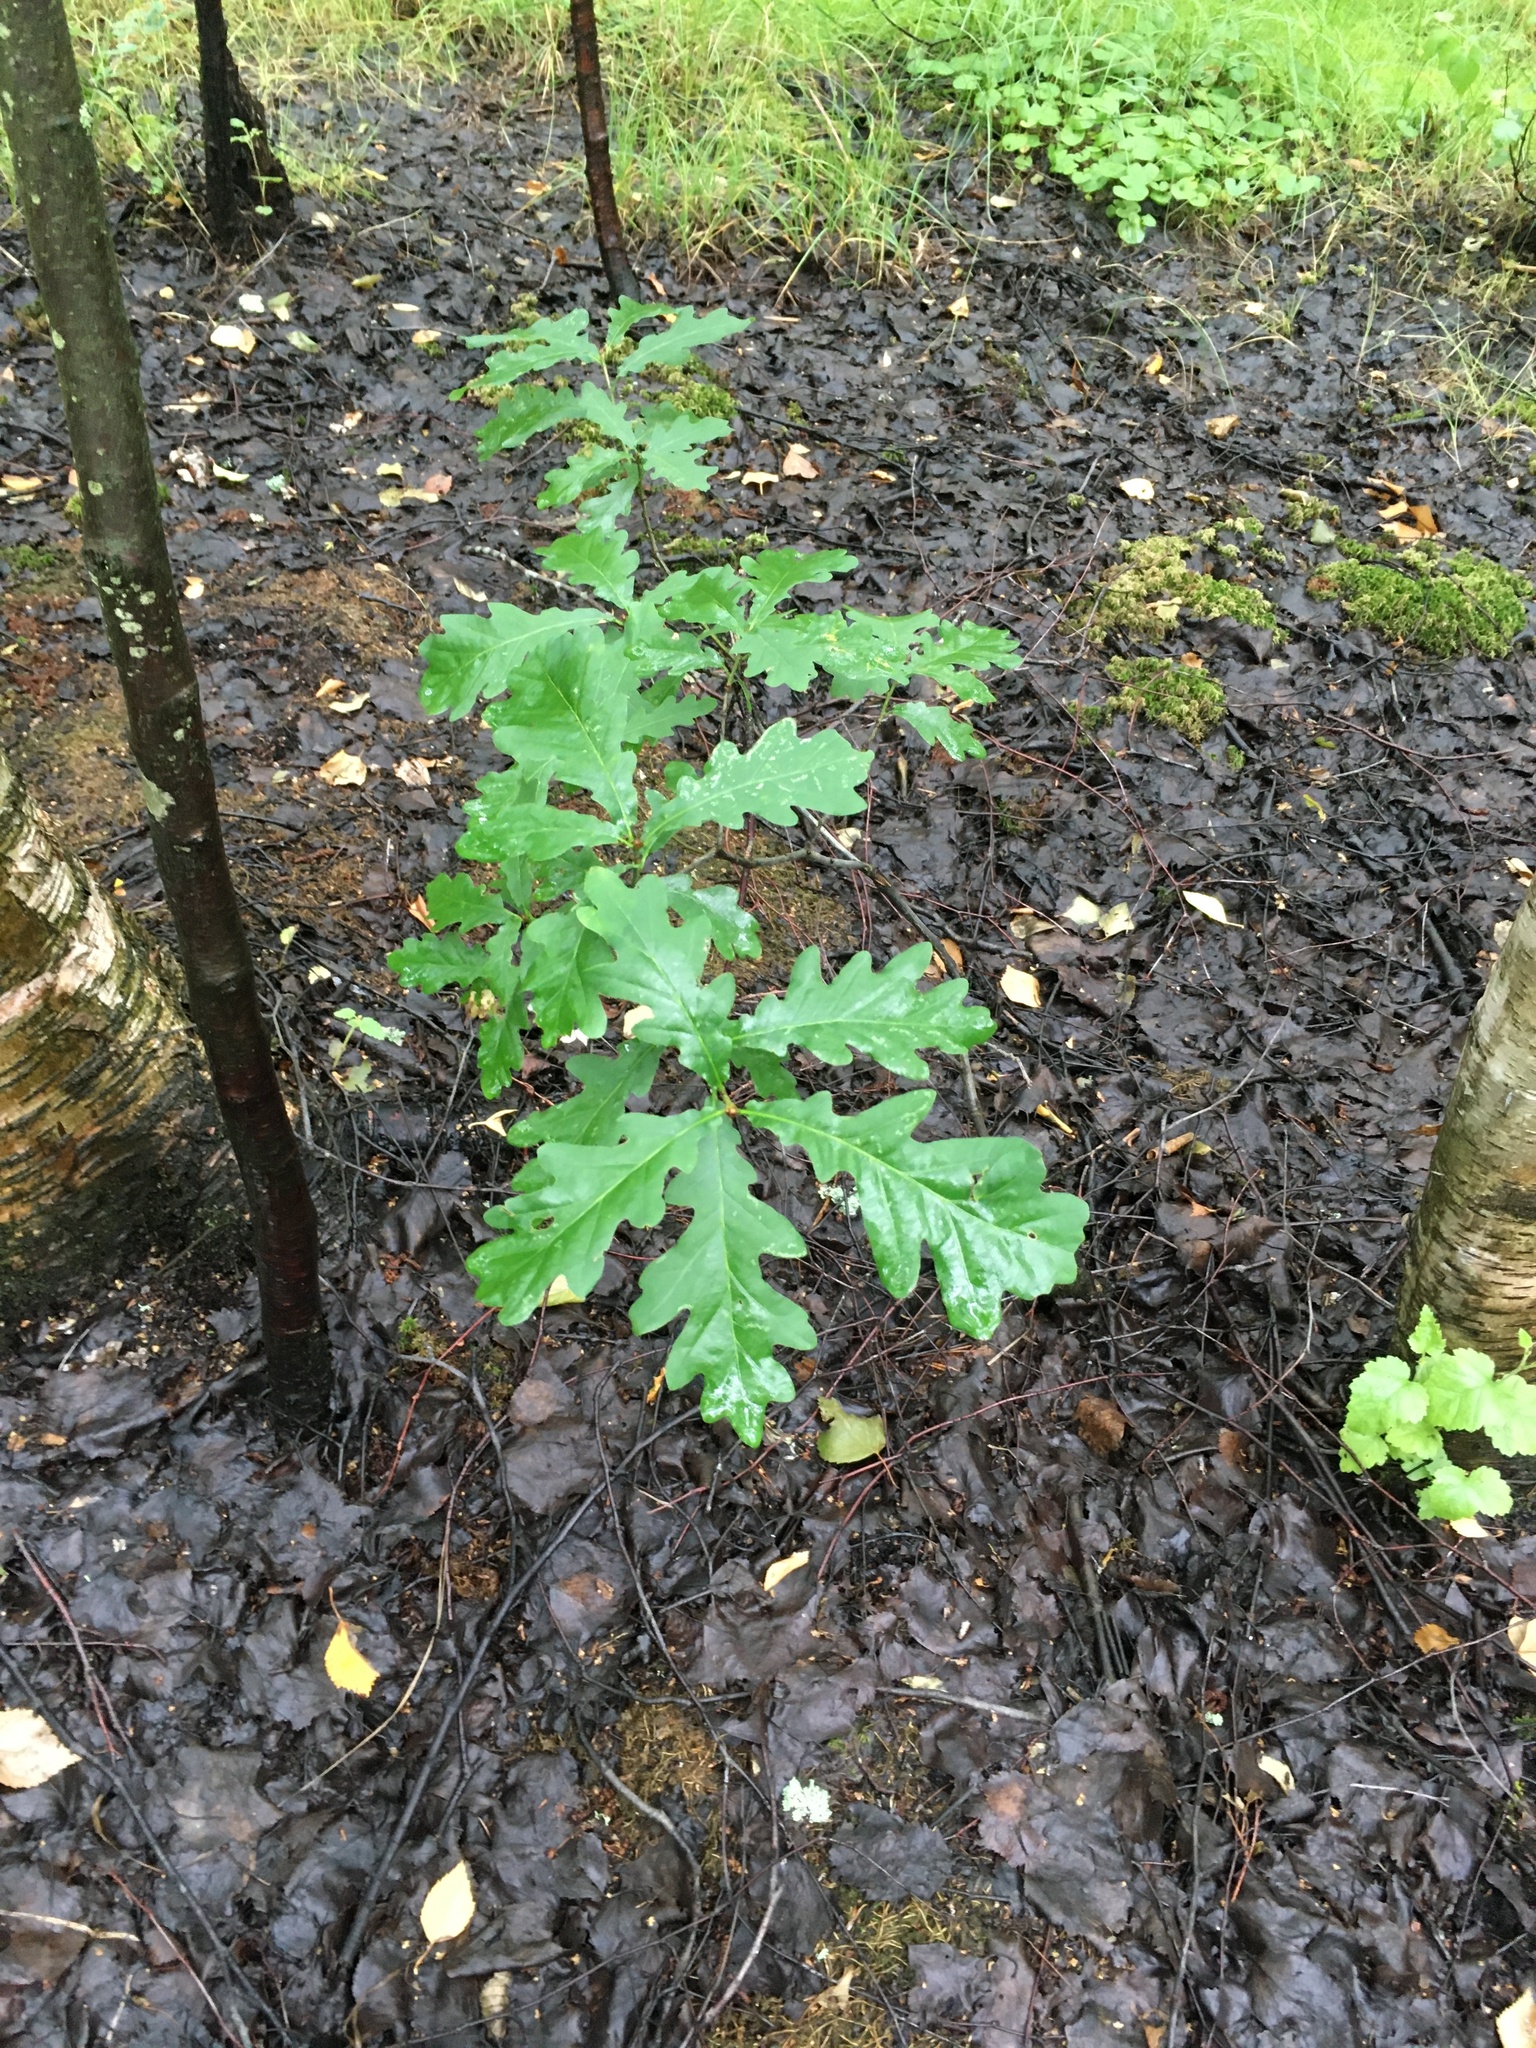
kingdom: Plantae
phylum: Tracheophyta
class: Magnoliopsida
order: Fagales
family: Fagaceae
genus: Quercus
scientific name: Quercus robur
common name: Pedunculate oak
